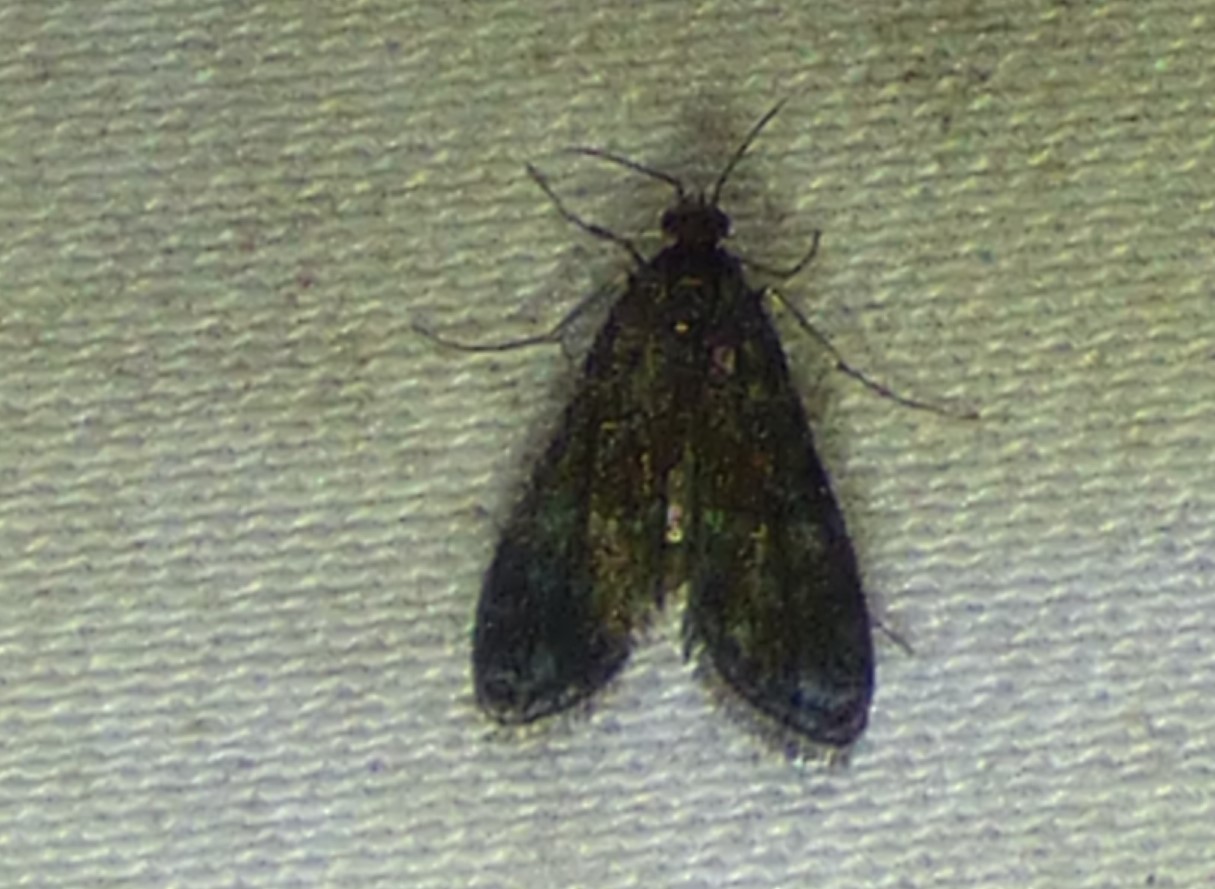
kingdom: Animalia
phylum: Arthropoda
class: Insecta
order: Lepidoptera
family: Crambidae
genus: Elophila
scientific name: Elophila tinealis
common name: Black duckweed moth
